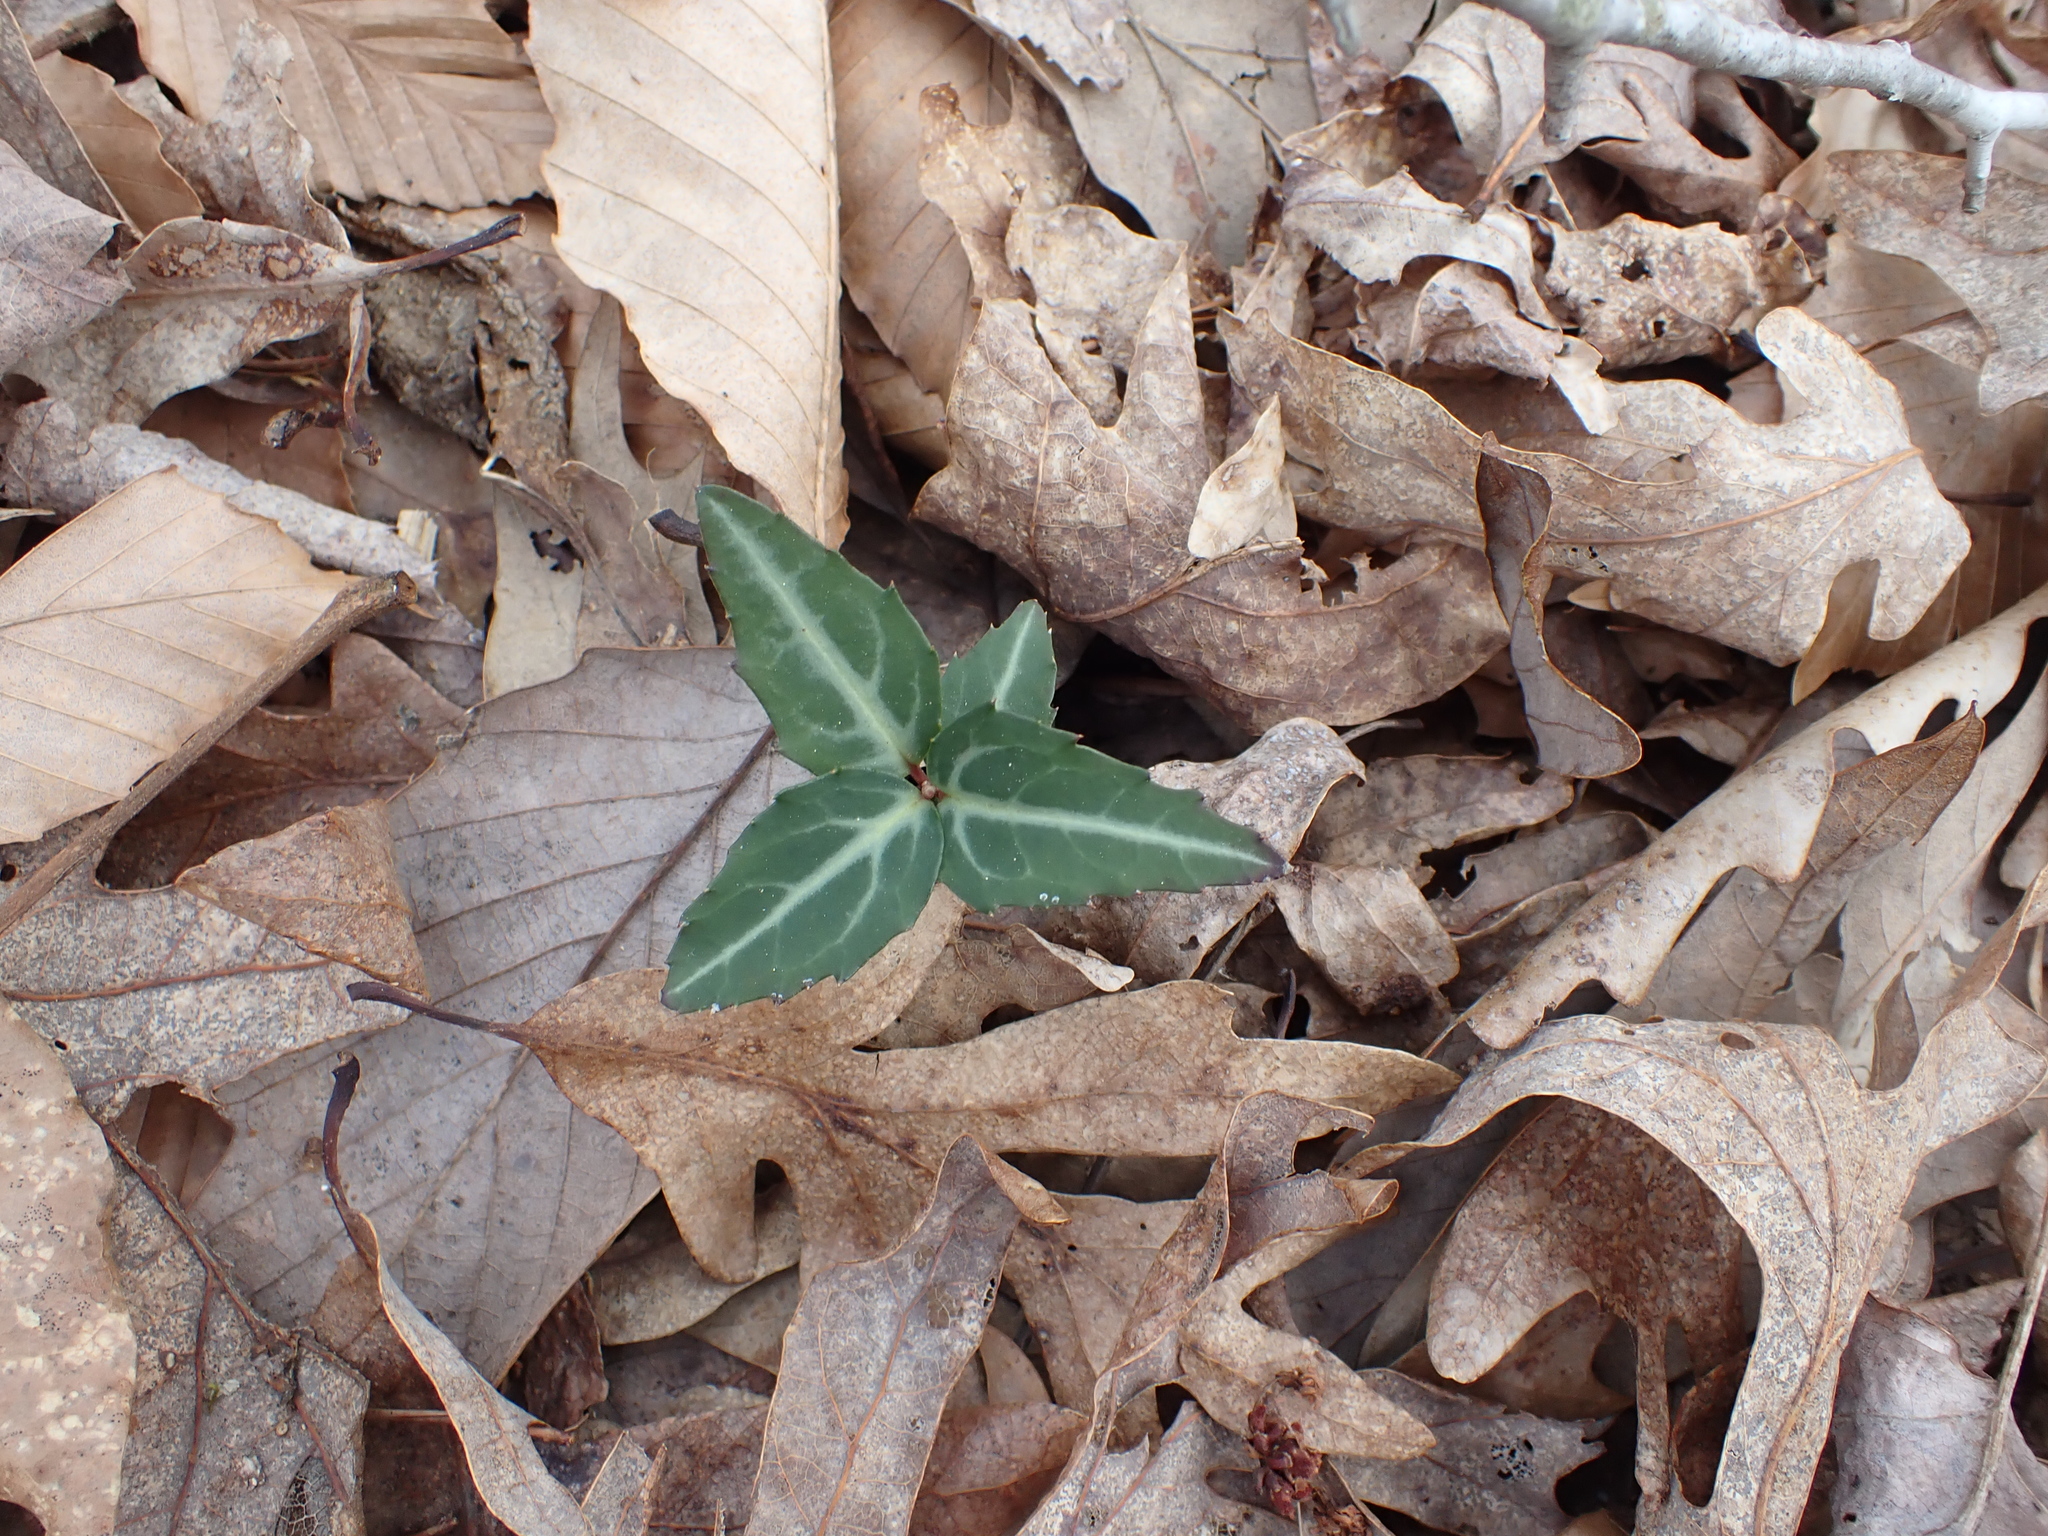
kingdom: Plantae
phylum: Tracheophyta
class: Magnoliopsida
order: Ericales
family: Ericaceae
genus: Chimaphila
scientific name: Chimaphila maculata
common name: Spotted pipsissewa
